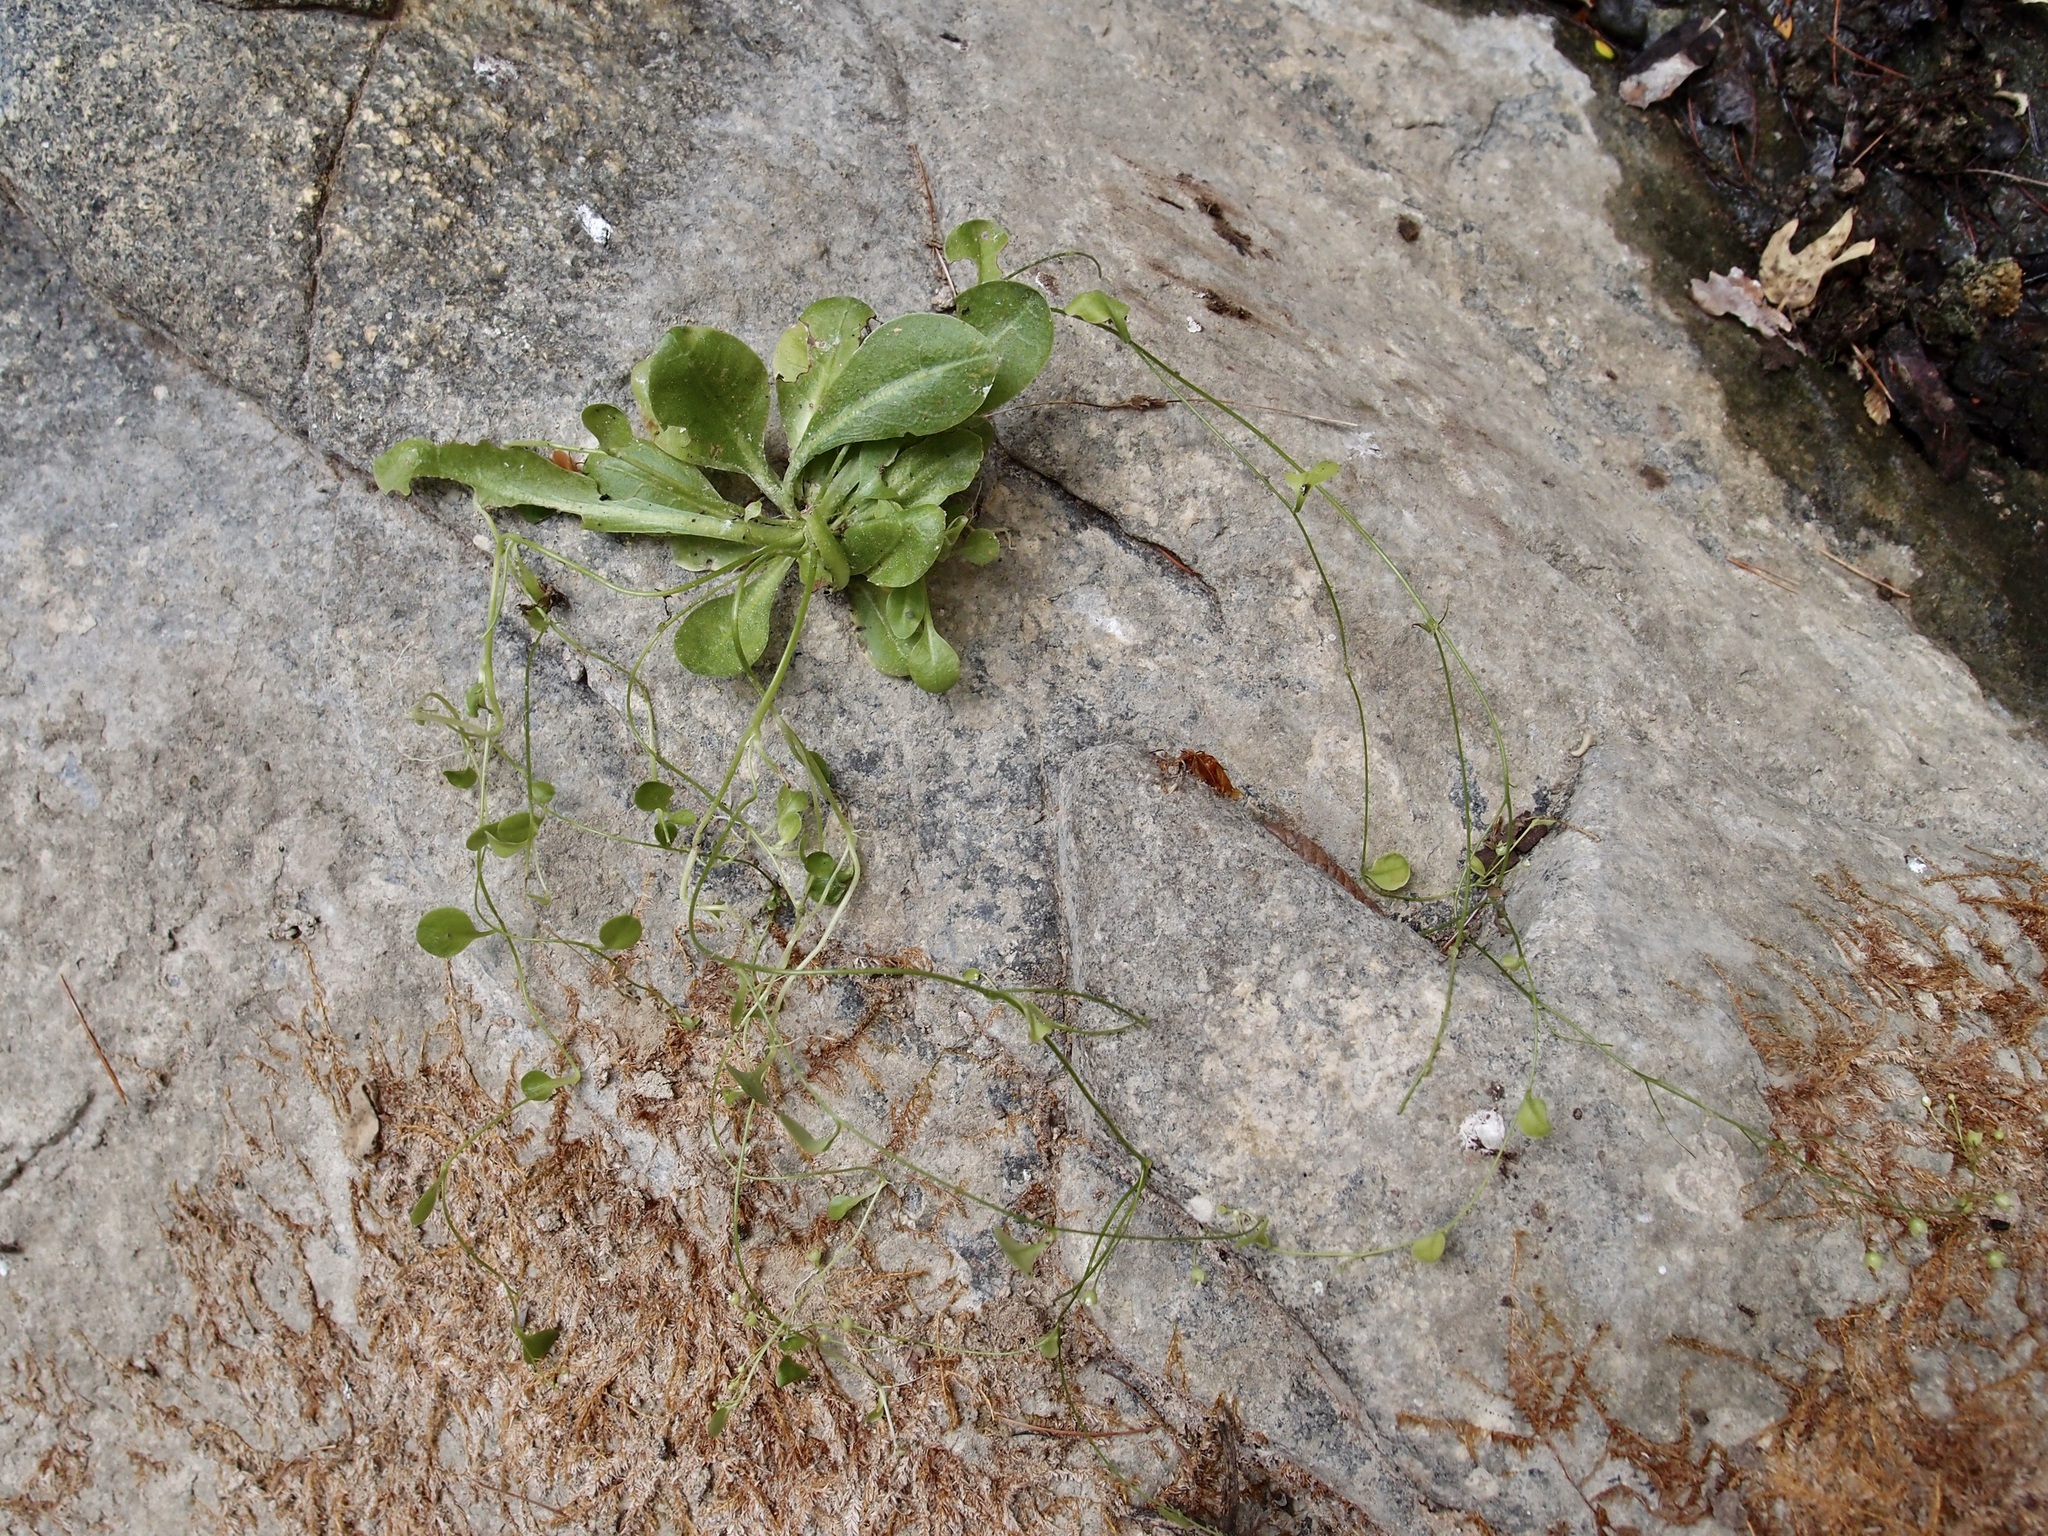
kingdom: Plantae
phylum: Tracheophyta
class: Magnoliopsida
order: Ericales
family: Primulaceae
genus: Samolus
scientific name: Samolus vagans
